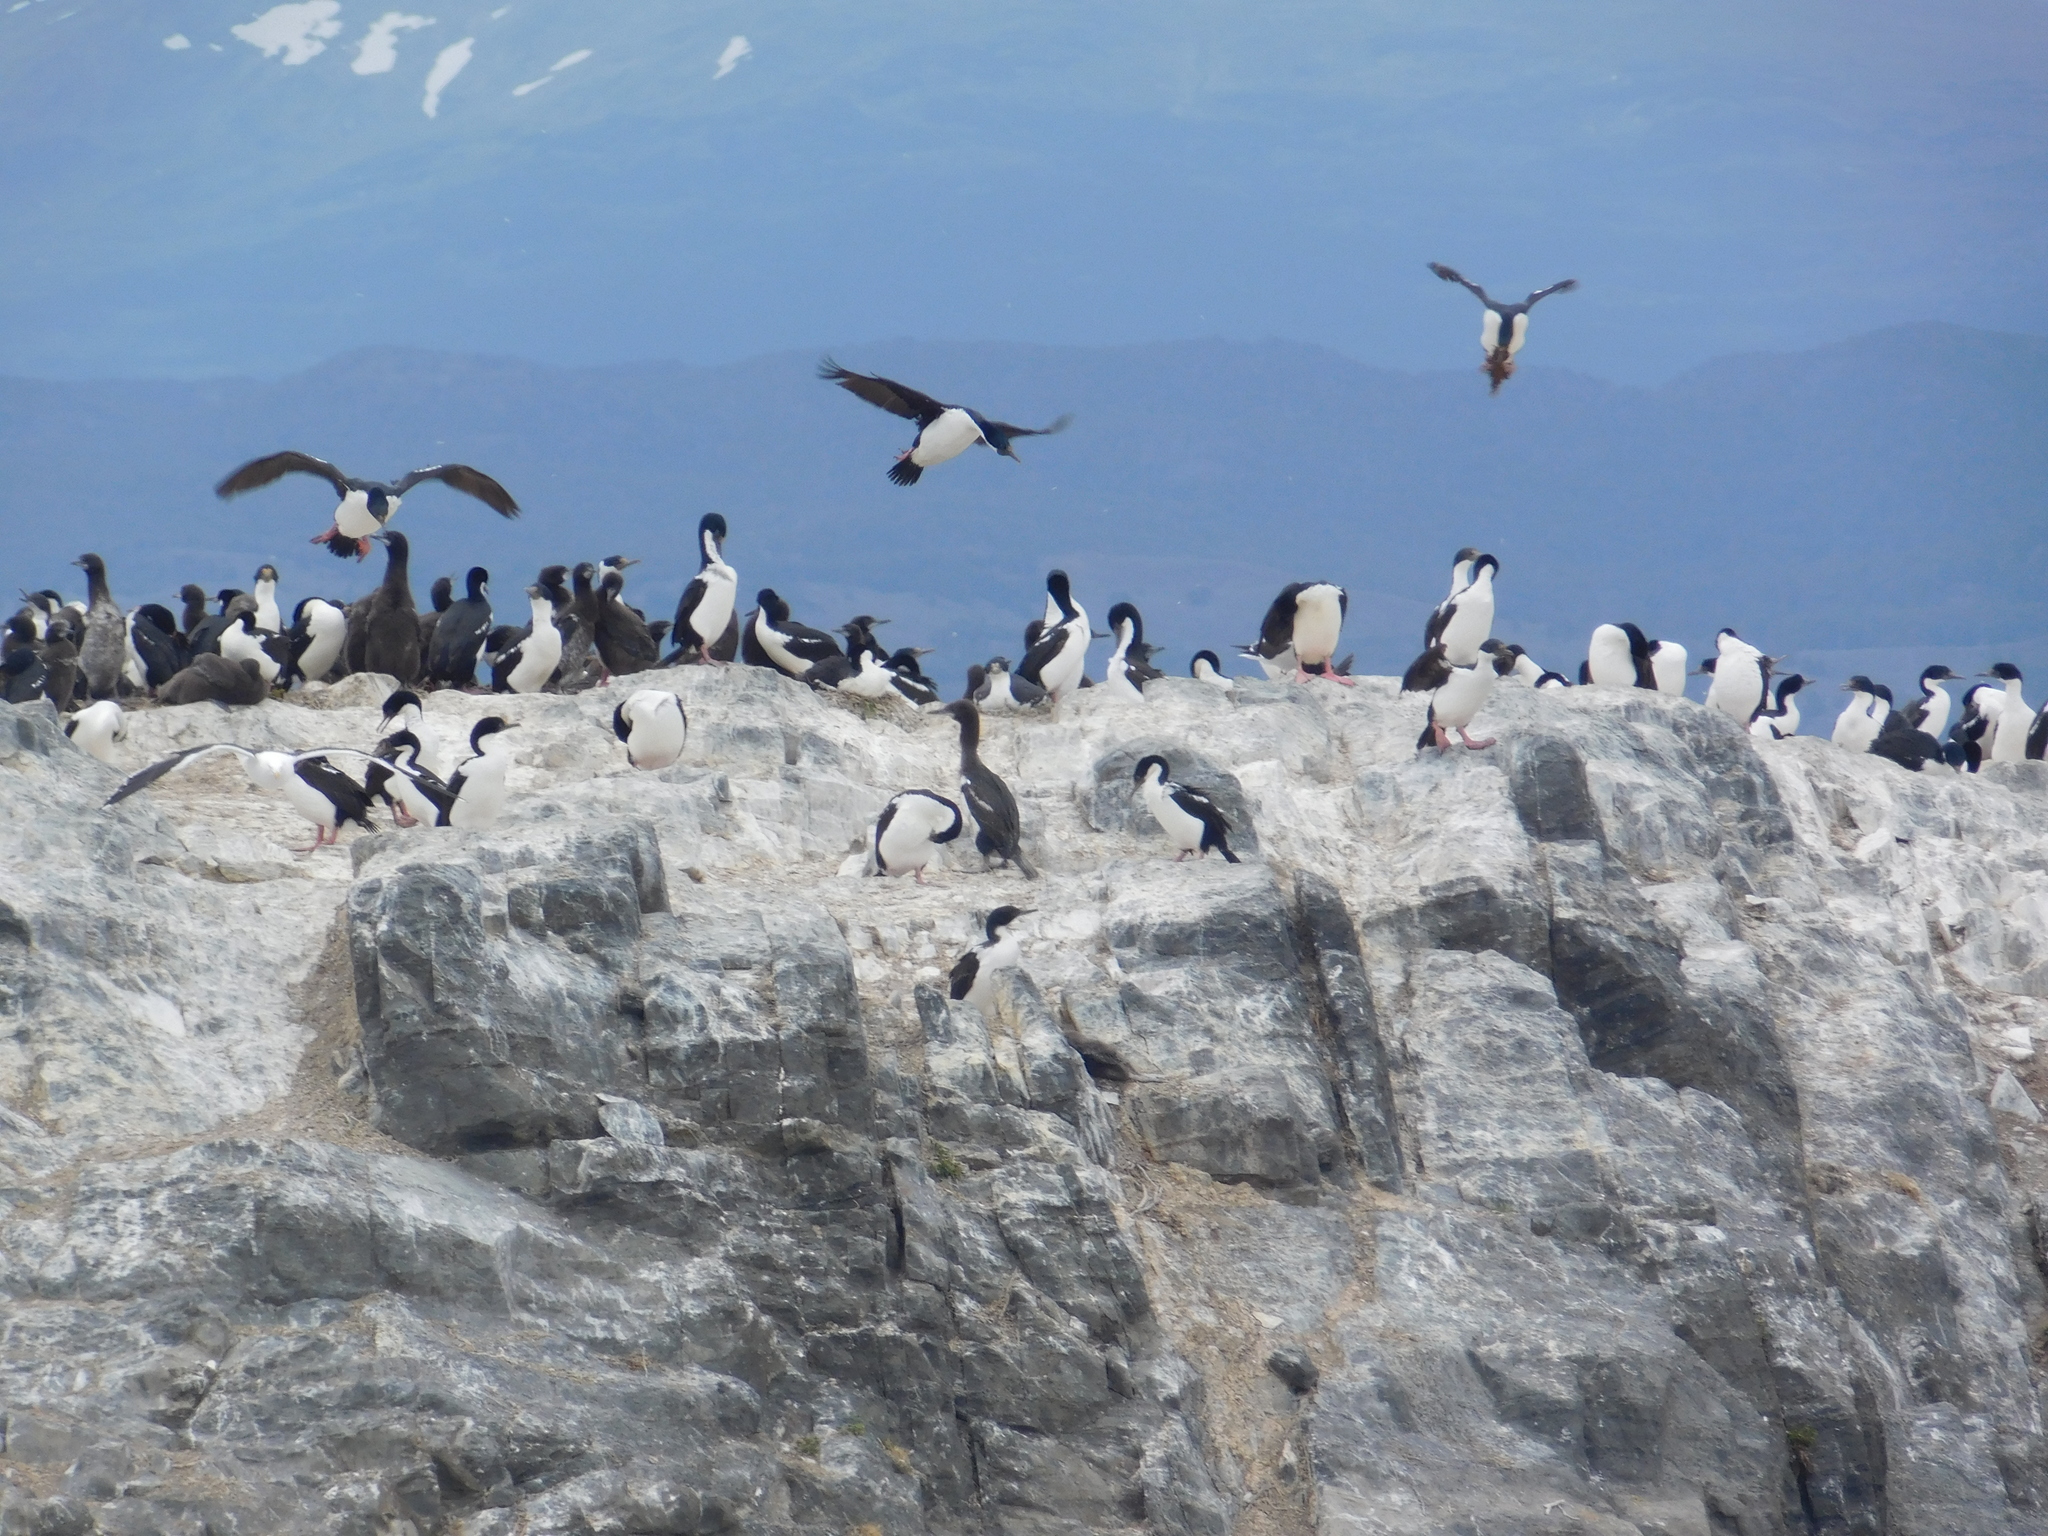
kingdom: Animalia
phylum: Chordata
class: Aves
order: Suliformes
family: Phalacrocoracidae
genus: Leucocarbo
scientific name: Leucocarbo atriceps
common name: Imperial shag
